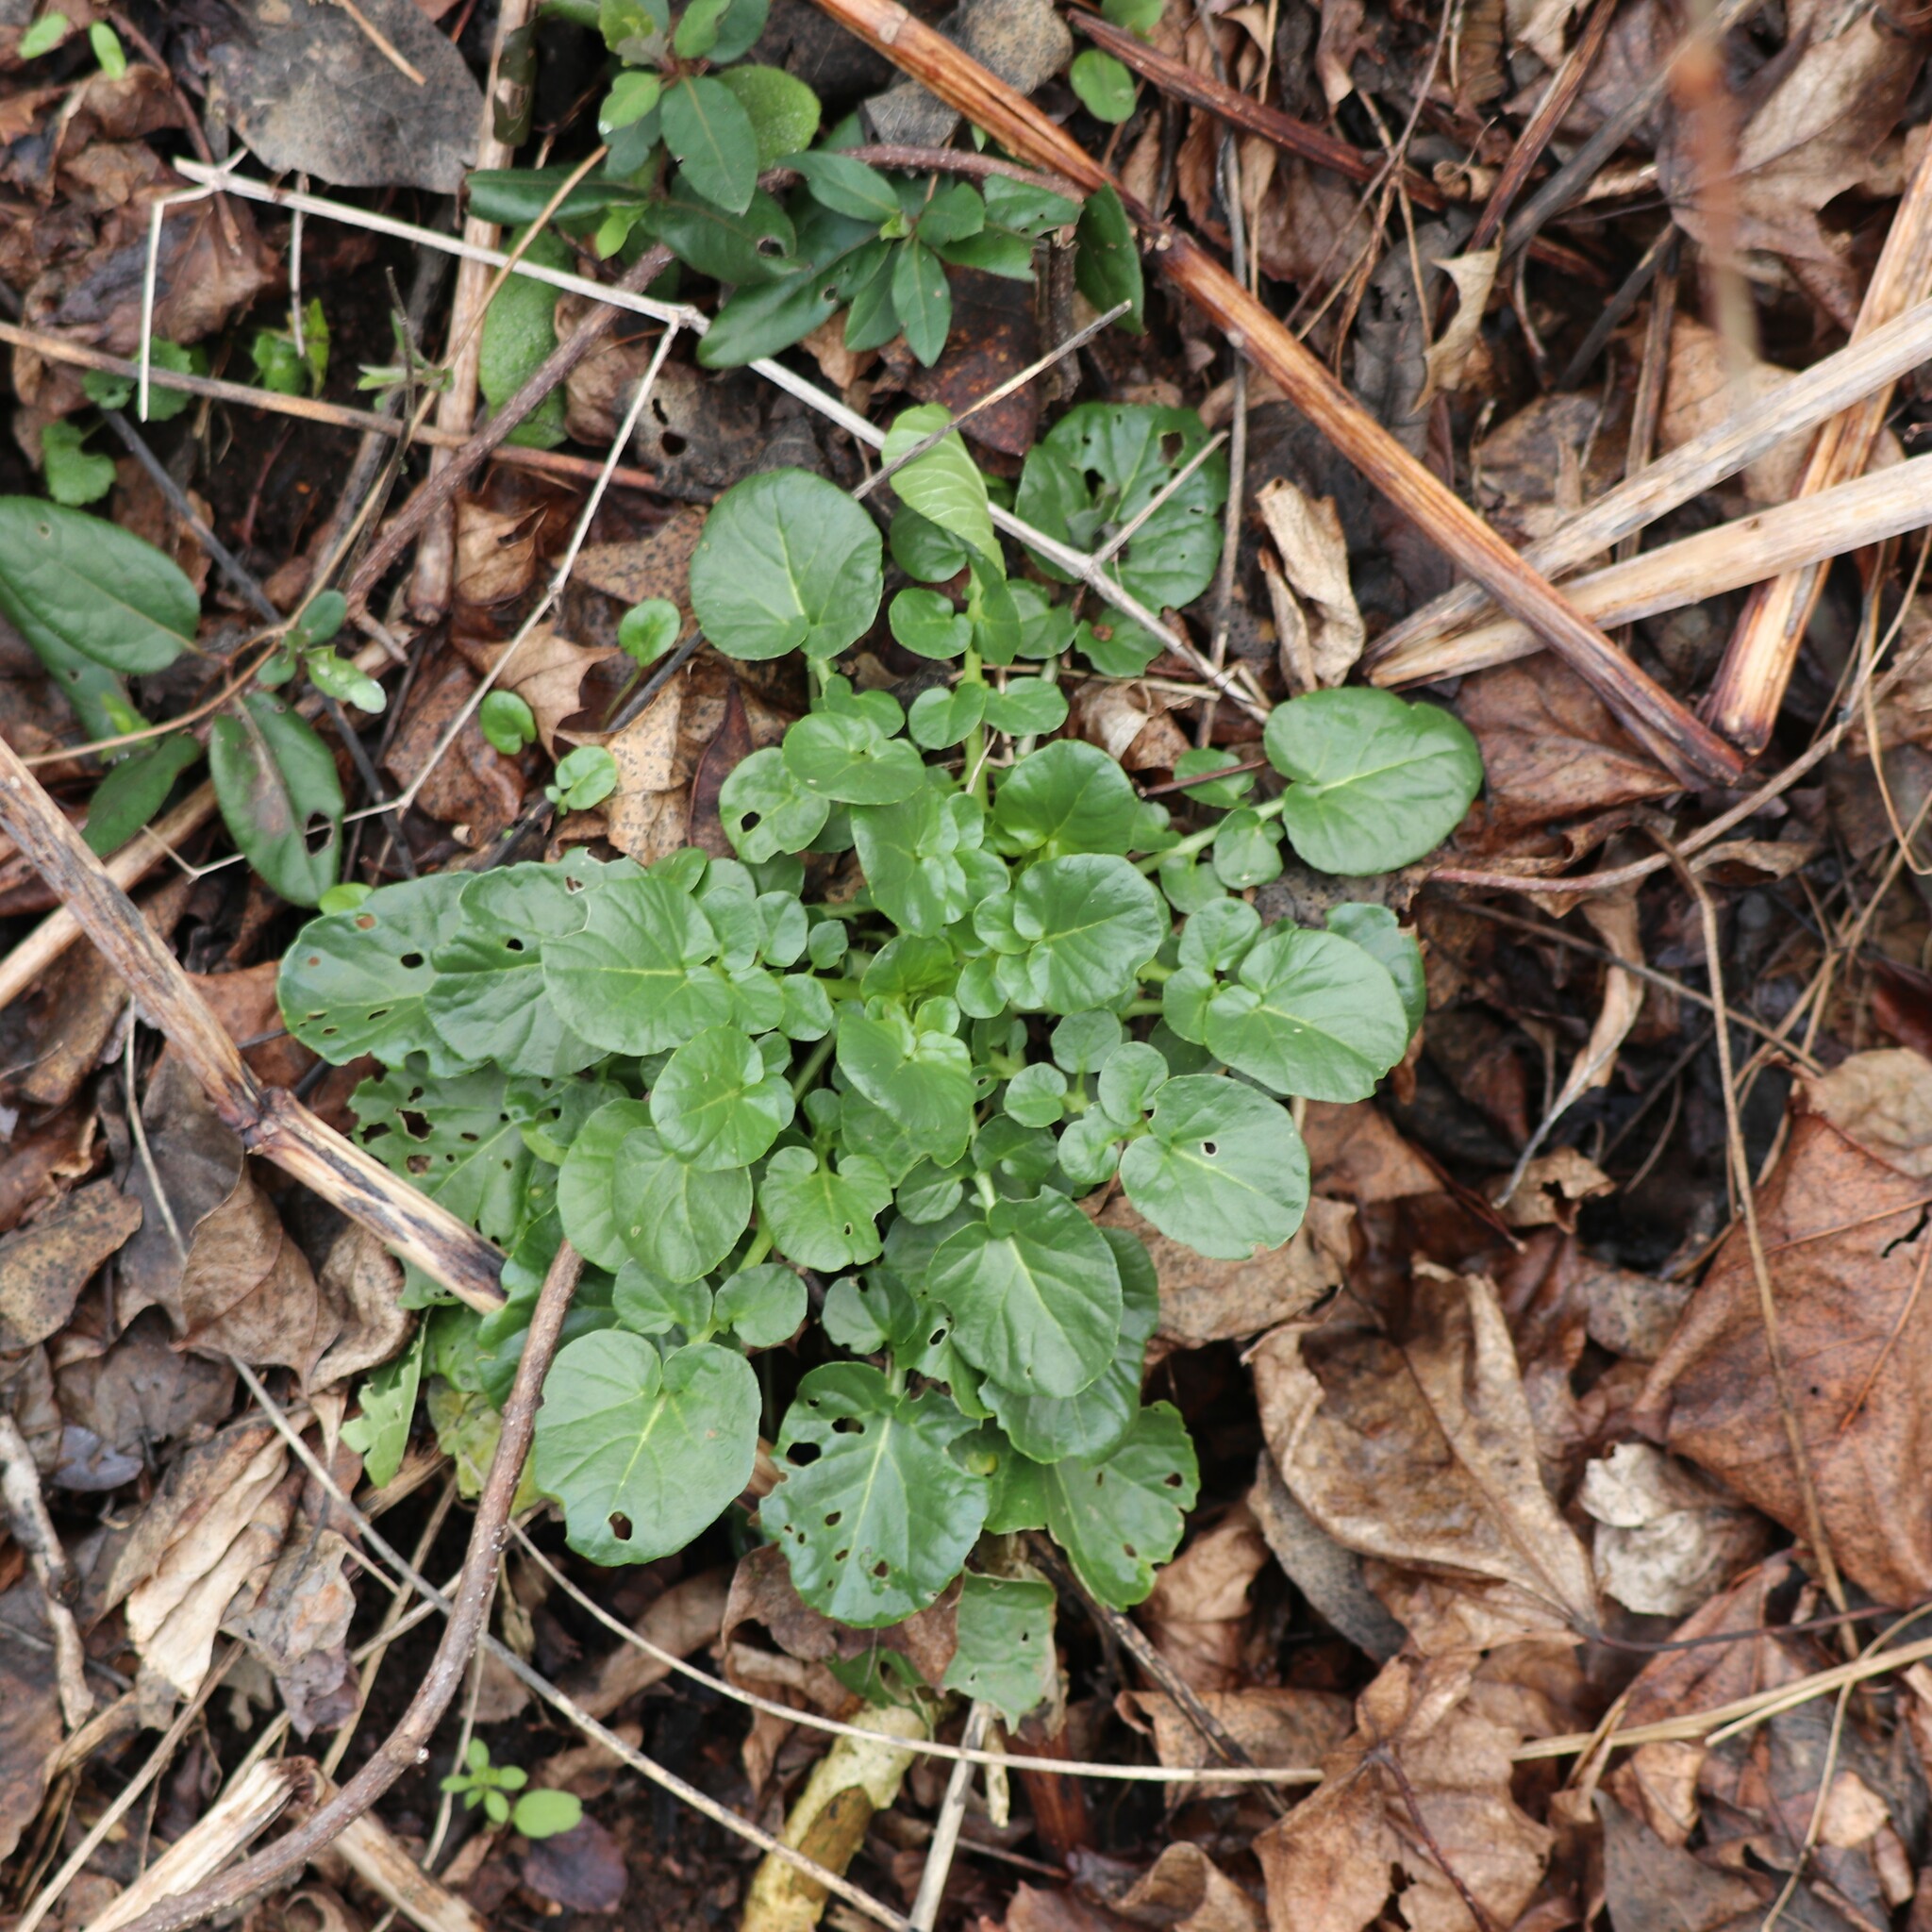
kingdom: Plantae
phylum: Tracheophyta
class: Magnoliopsida
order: Brassicales
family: Brassicaceae
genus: Barbarea
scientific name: Barbarea vulgaris
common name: Cressy-greens
